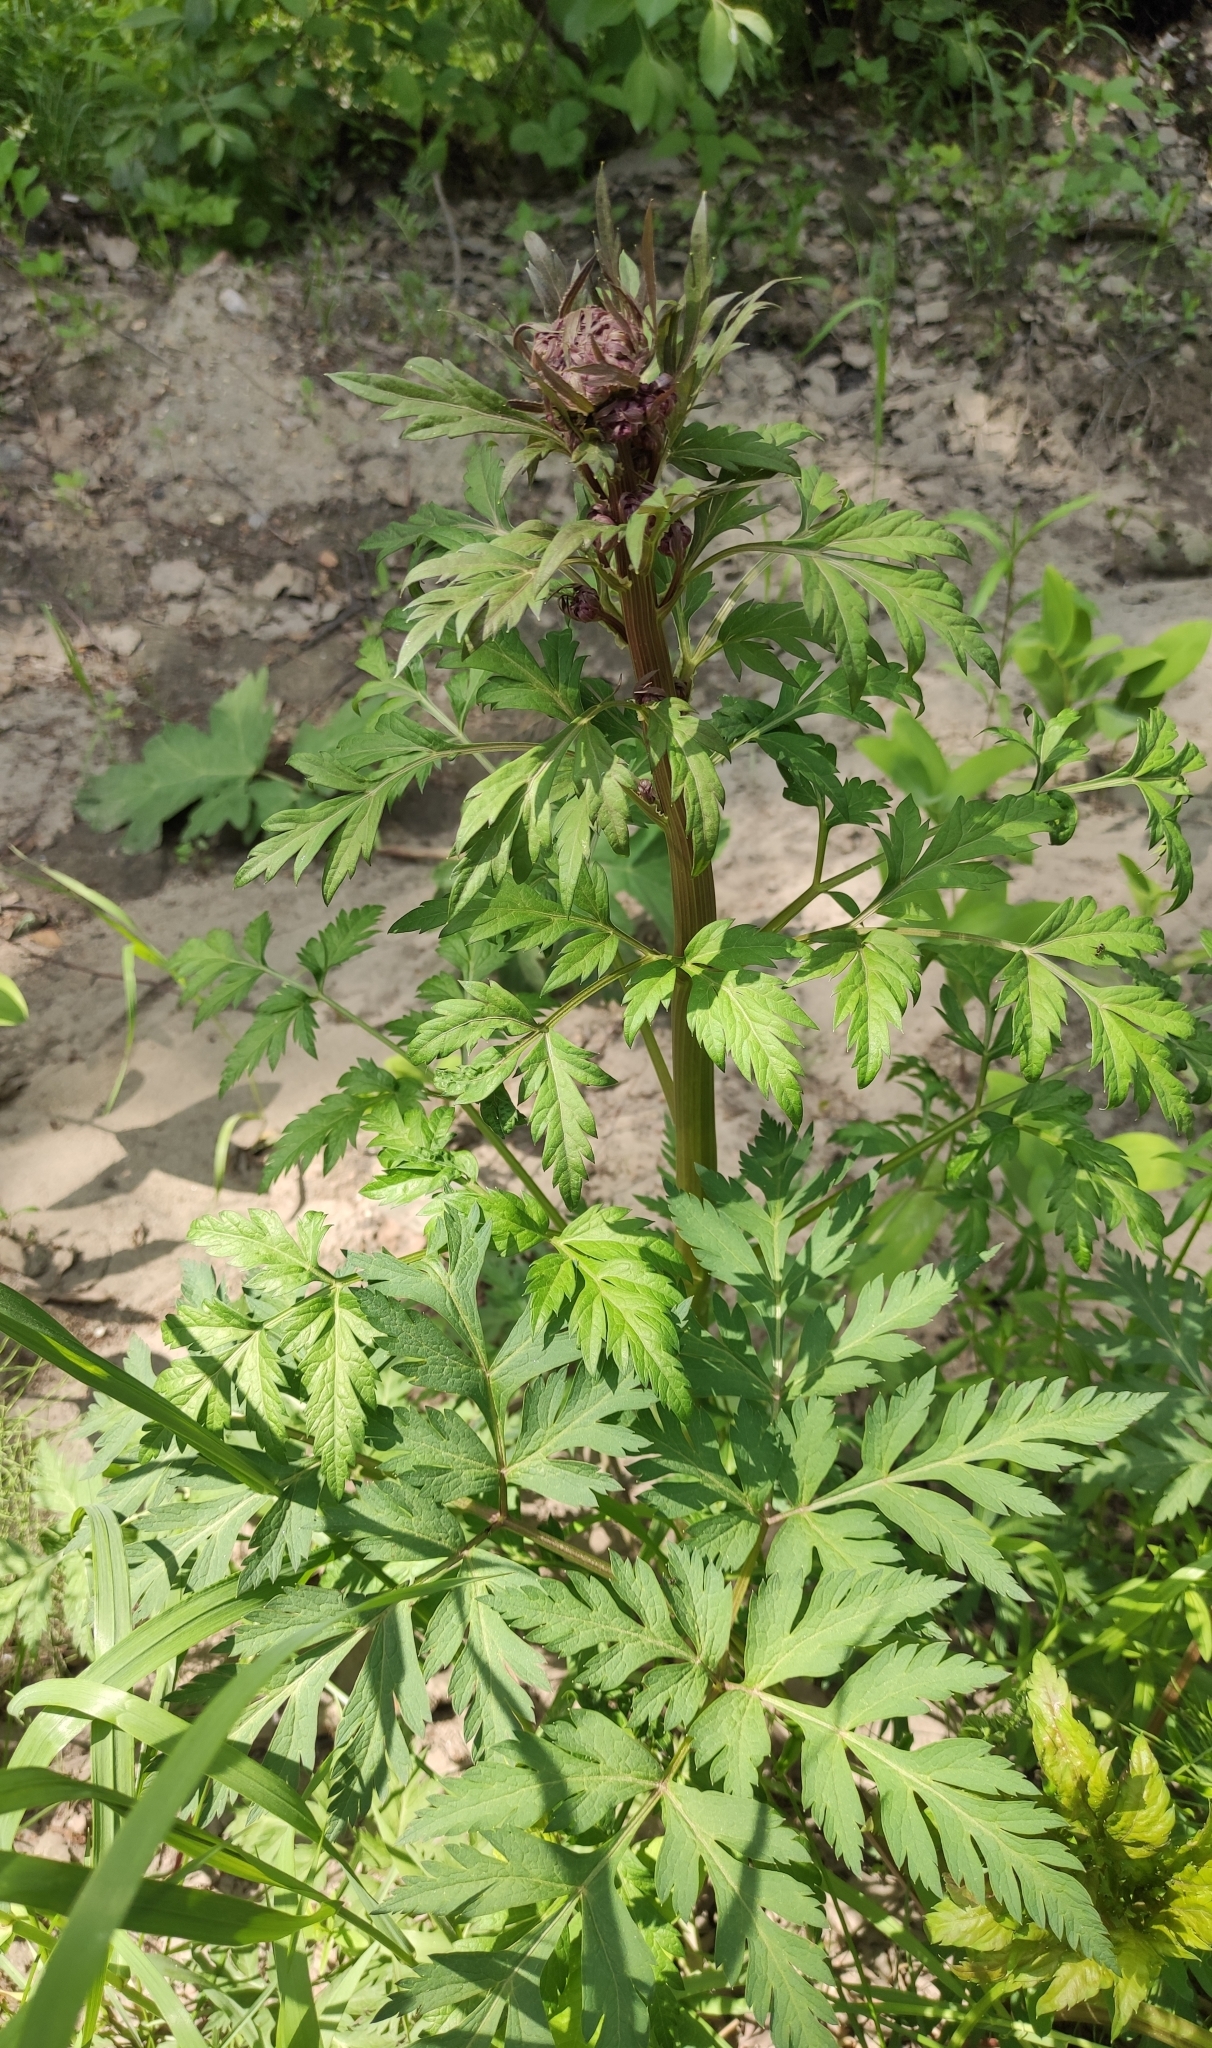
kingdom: Plantae
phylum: Tracheophyta
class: Magnoliopsida
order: Apiales
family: Apiaceae
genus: Pleurospermum
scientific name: Pleurospermum uralense
